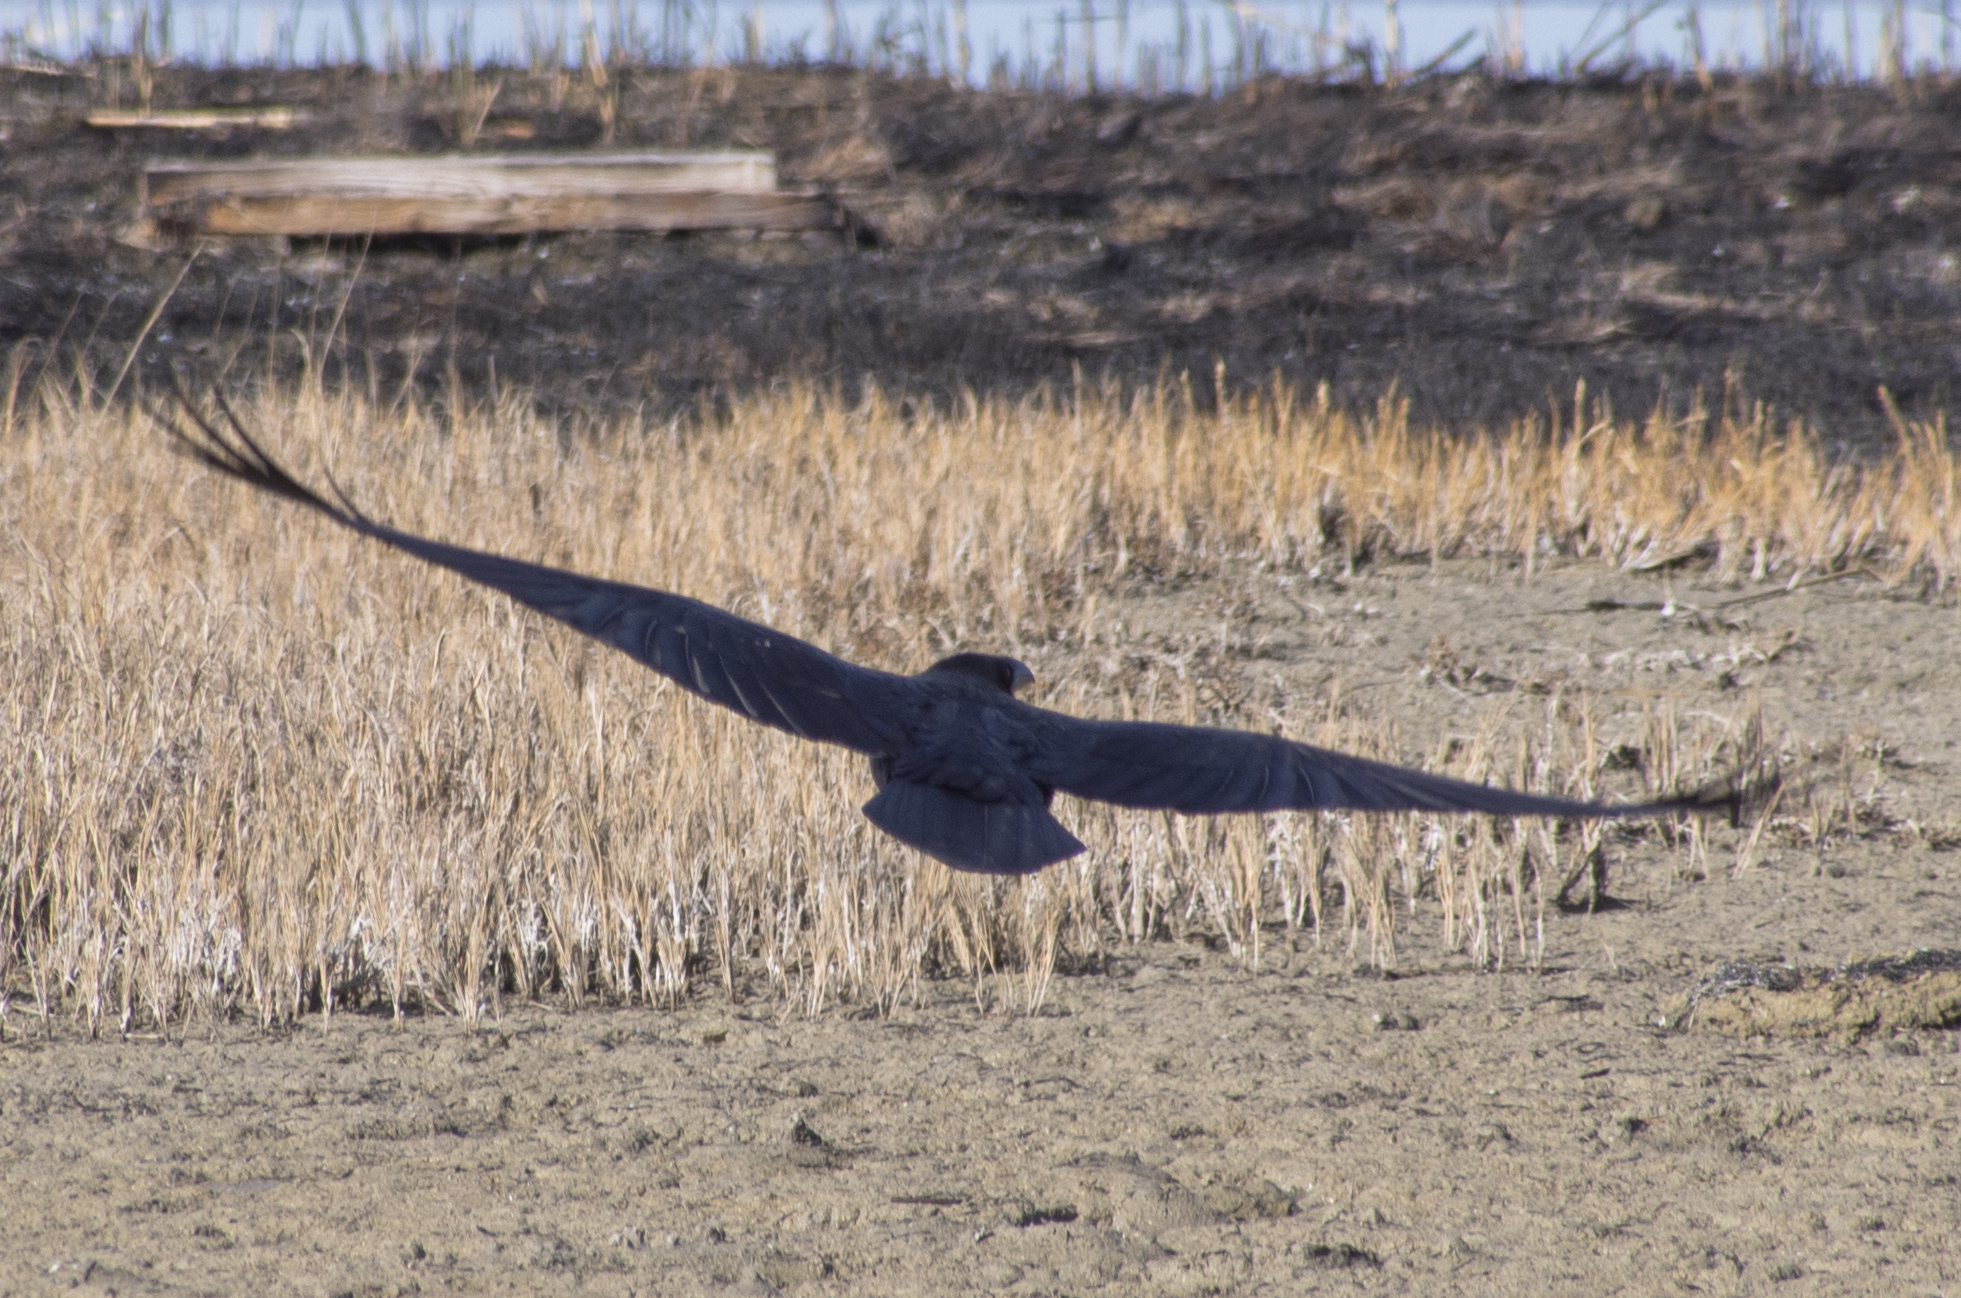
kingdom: Animalia
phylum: Chordata
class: Aves
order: Passeriformes
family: Corvidae
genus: Corvus
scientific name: Corvus corax
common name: Common raven
